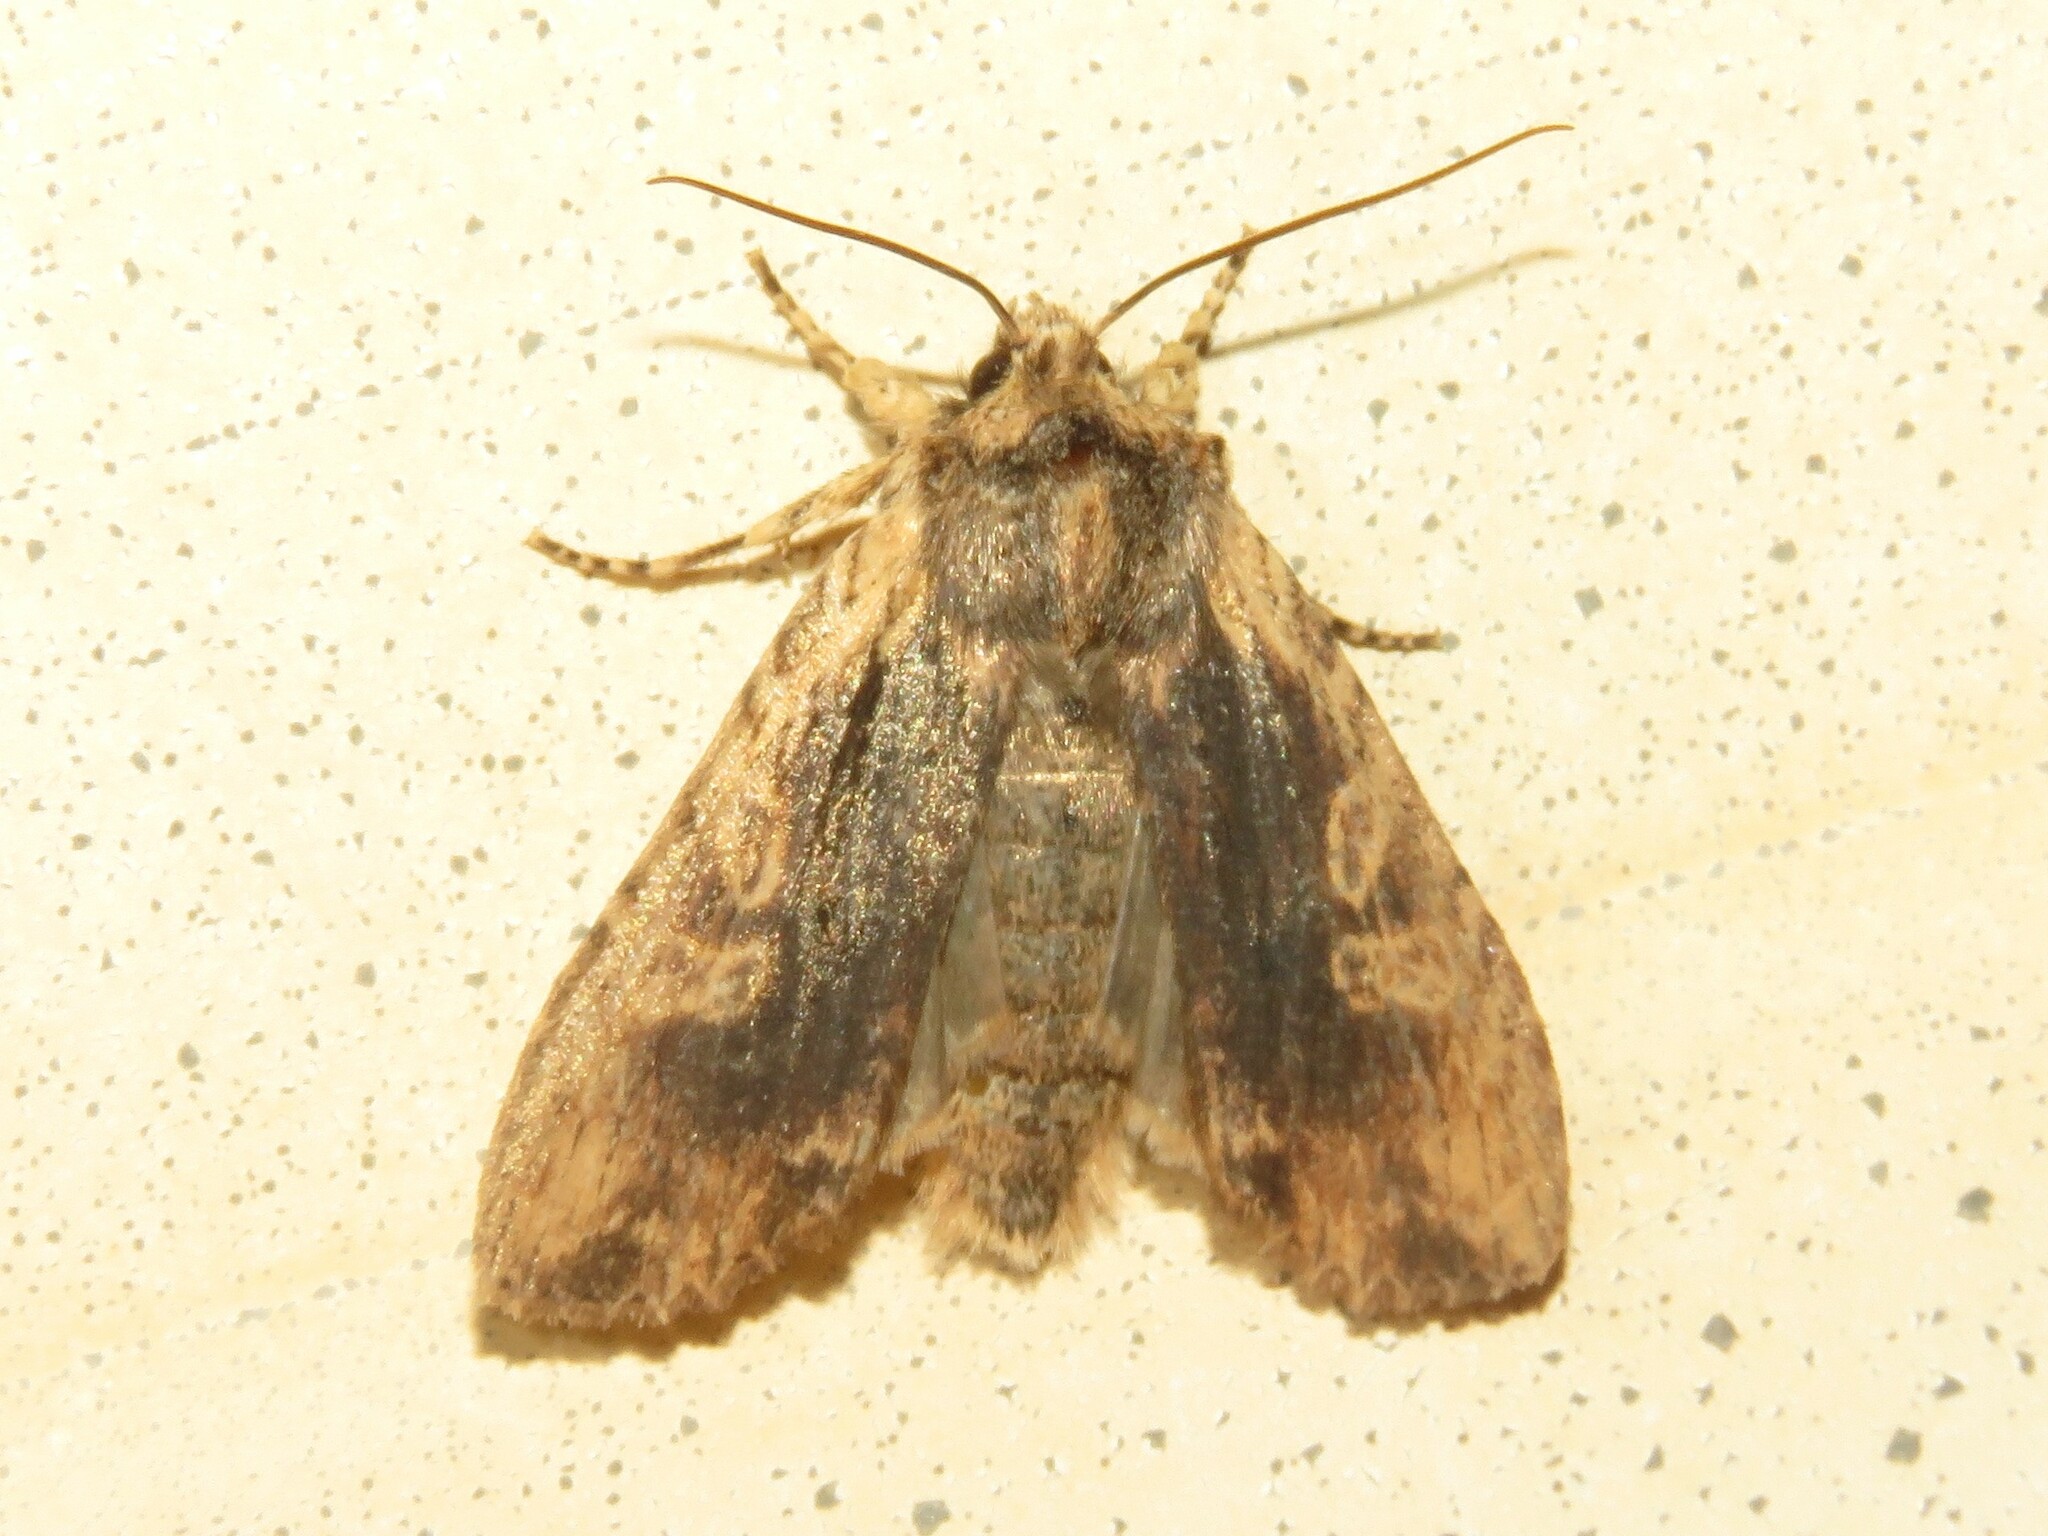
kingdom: Animalia
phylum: Arthropoda
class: Insecta
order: Lepidoptera
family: Noctuidae
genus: Lithophane
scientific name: Lithophane hemina
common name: Hemina pinion moth
